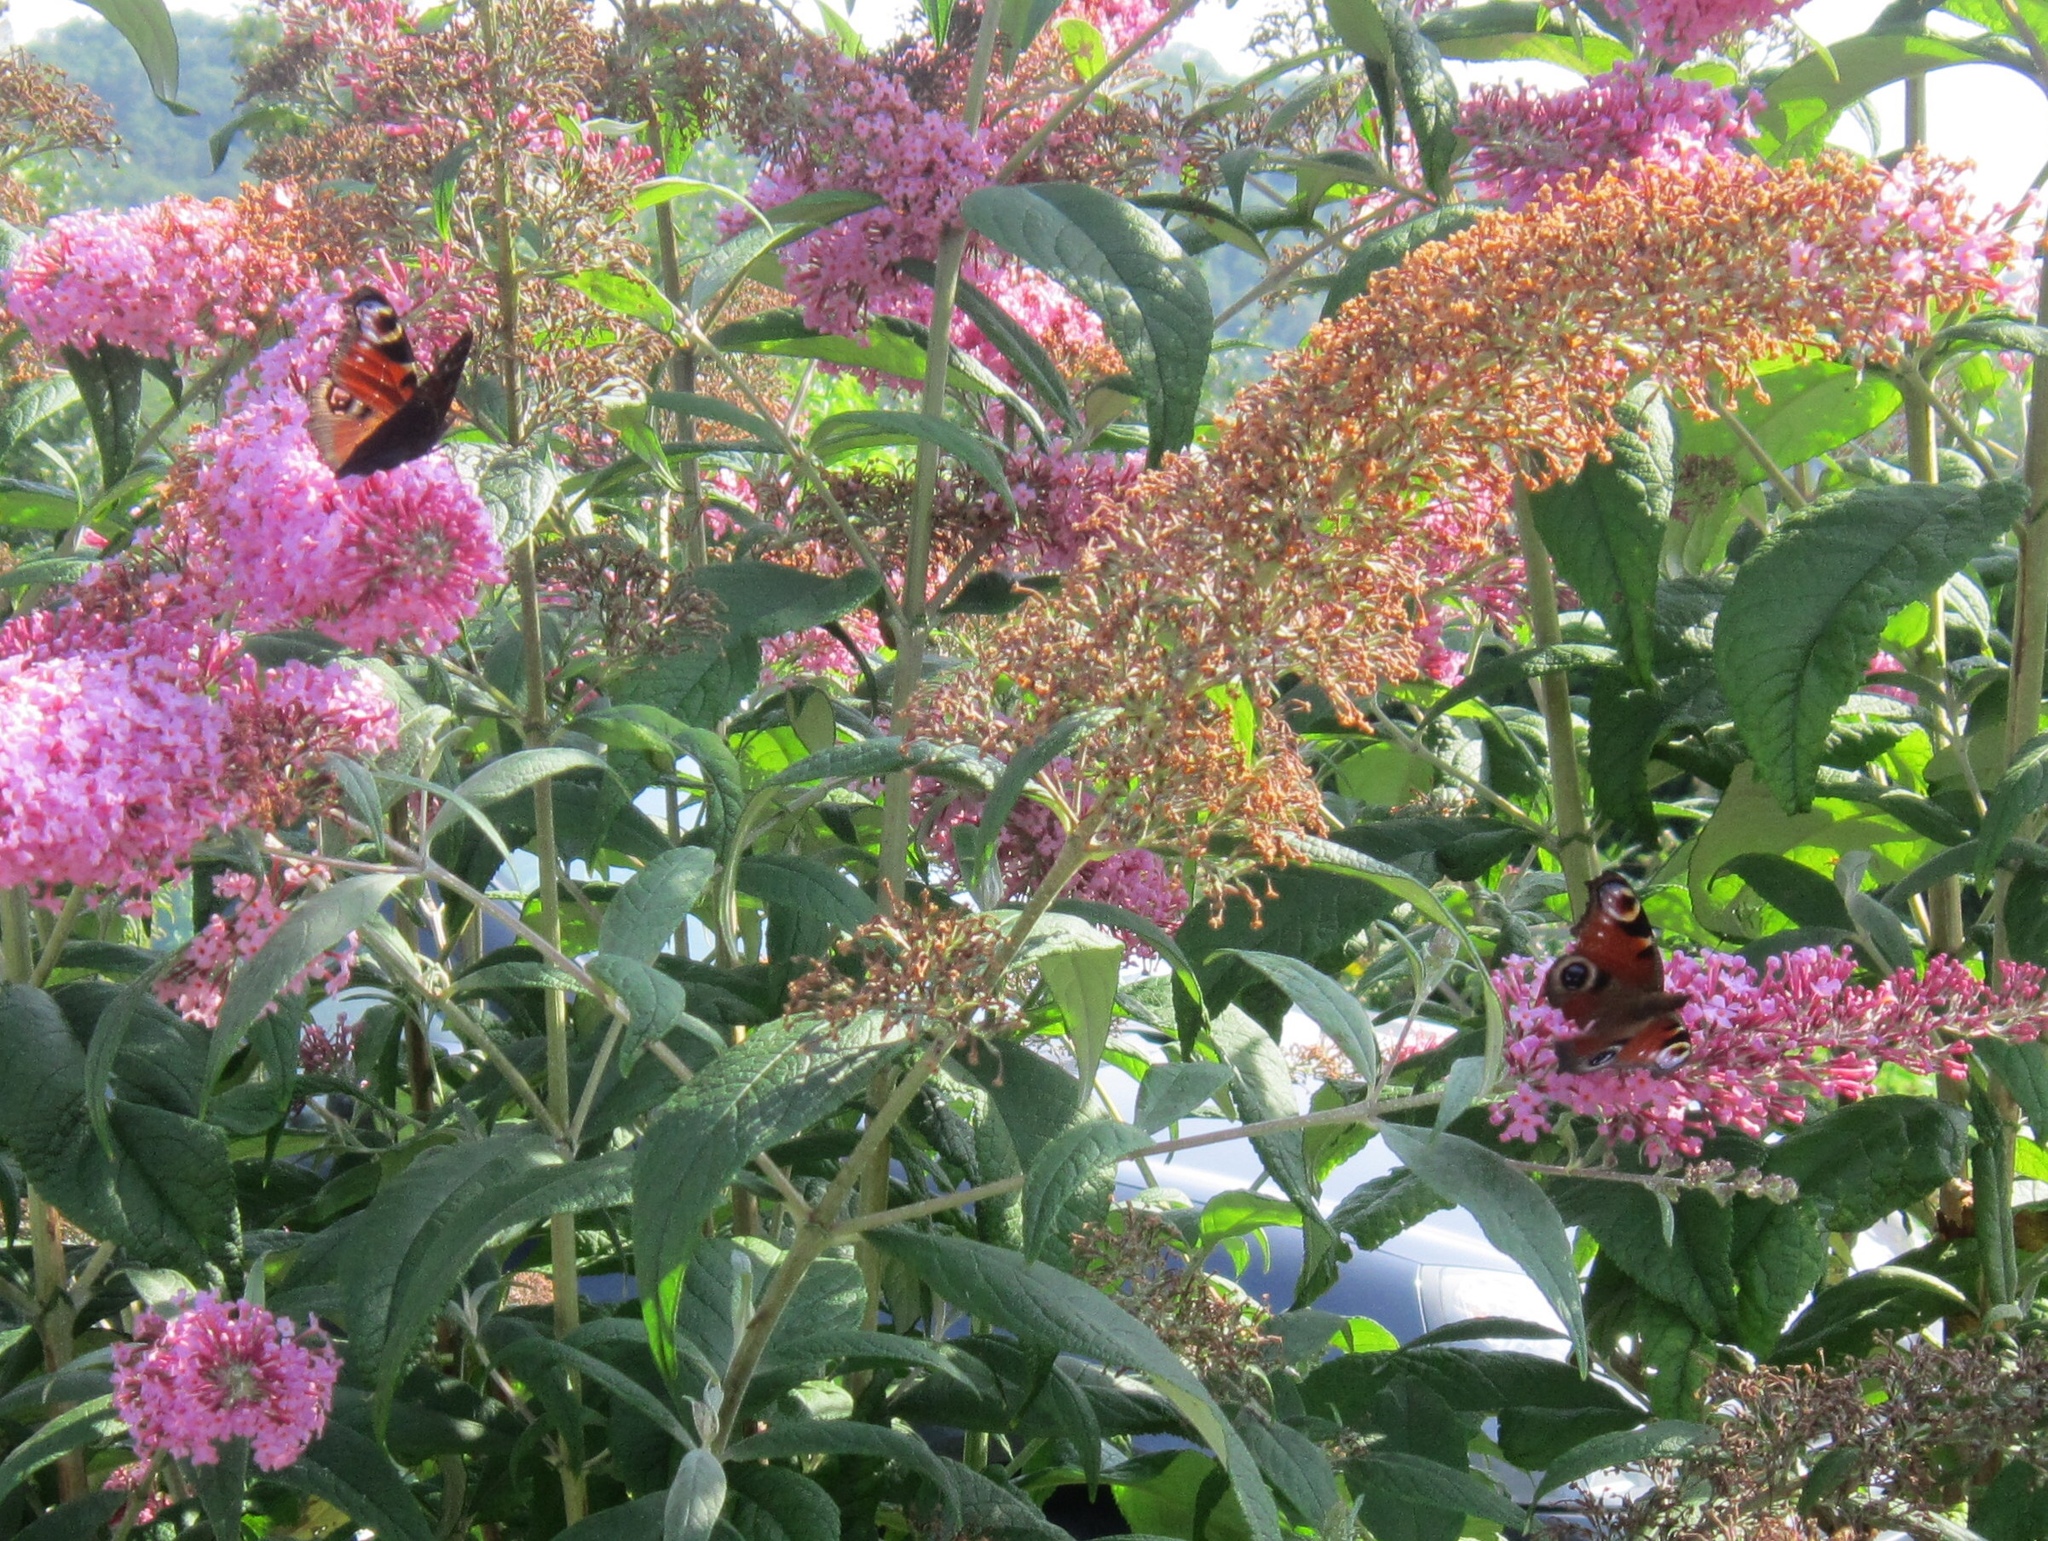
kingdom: Animalia
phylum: Arthropoda
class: Insecta
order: Lepidoptera
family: Nymphalidae
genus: Aglais
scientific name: Aglais io
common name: Peacock
